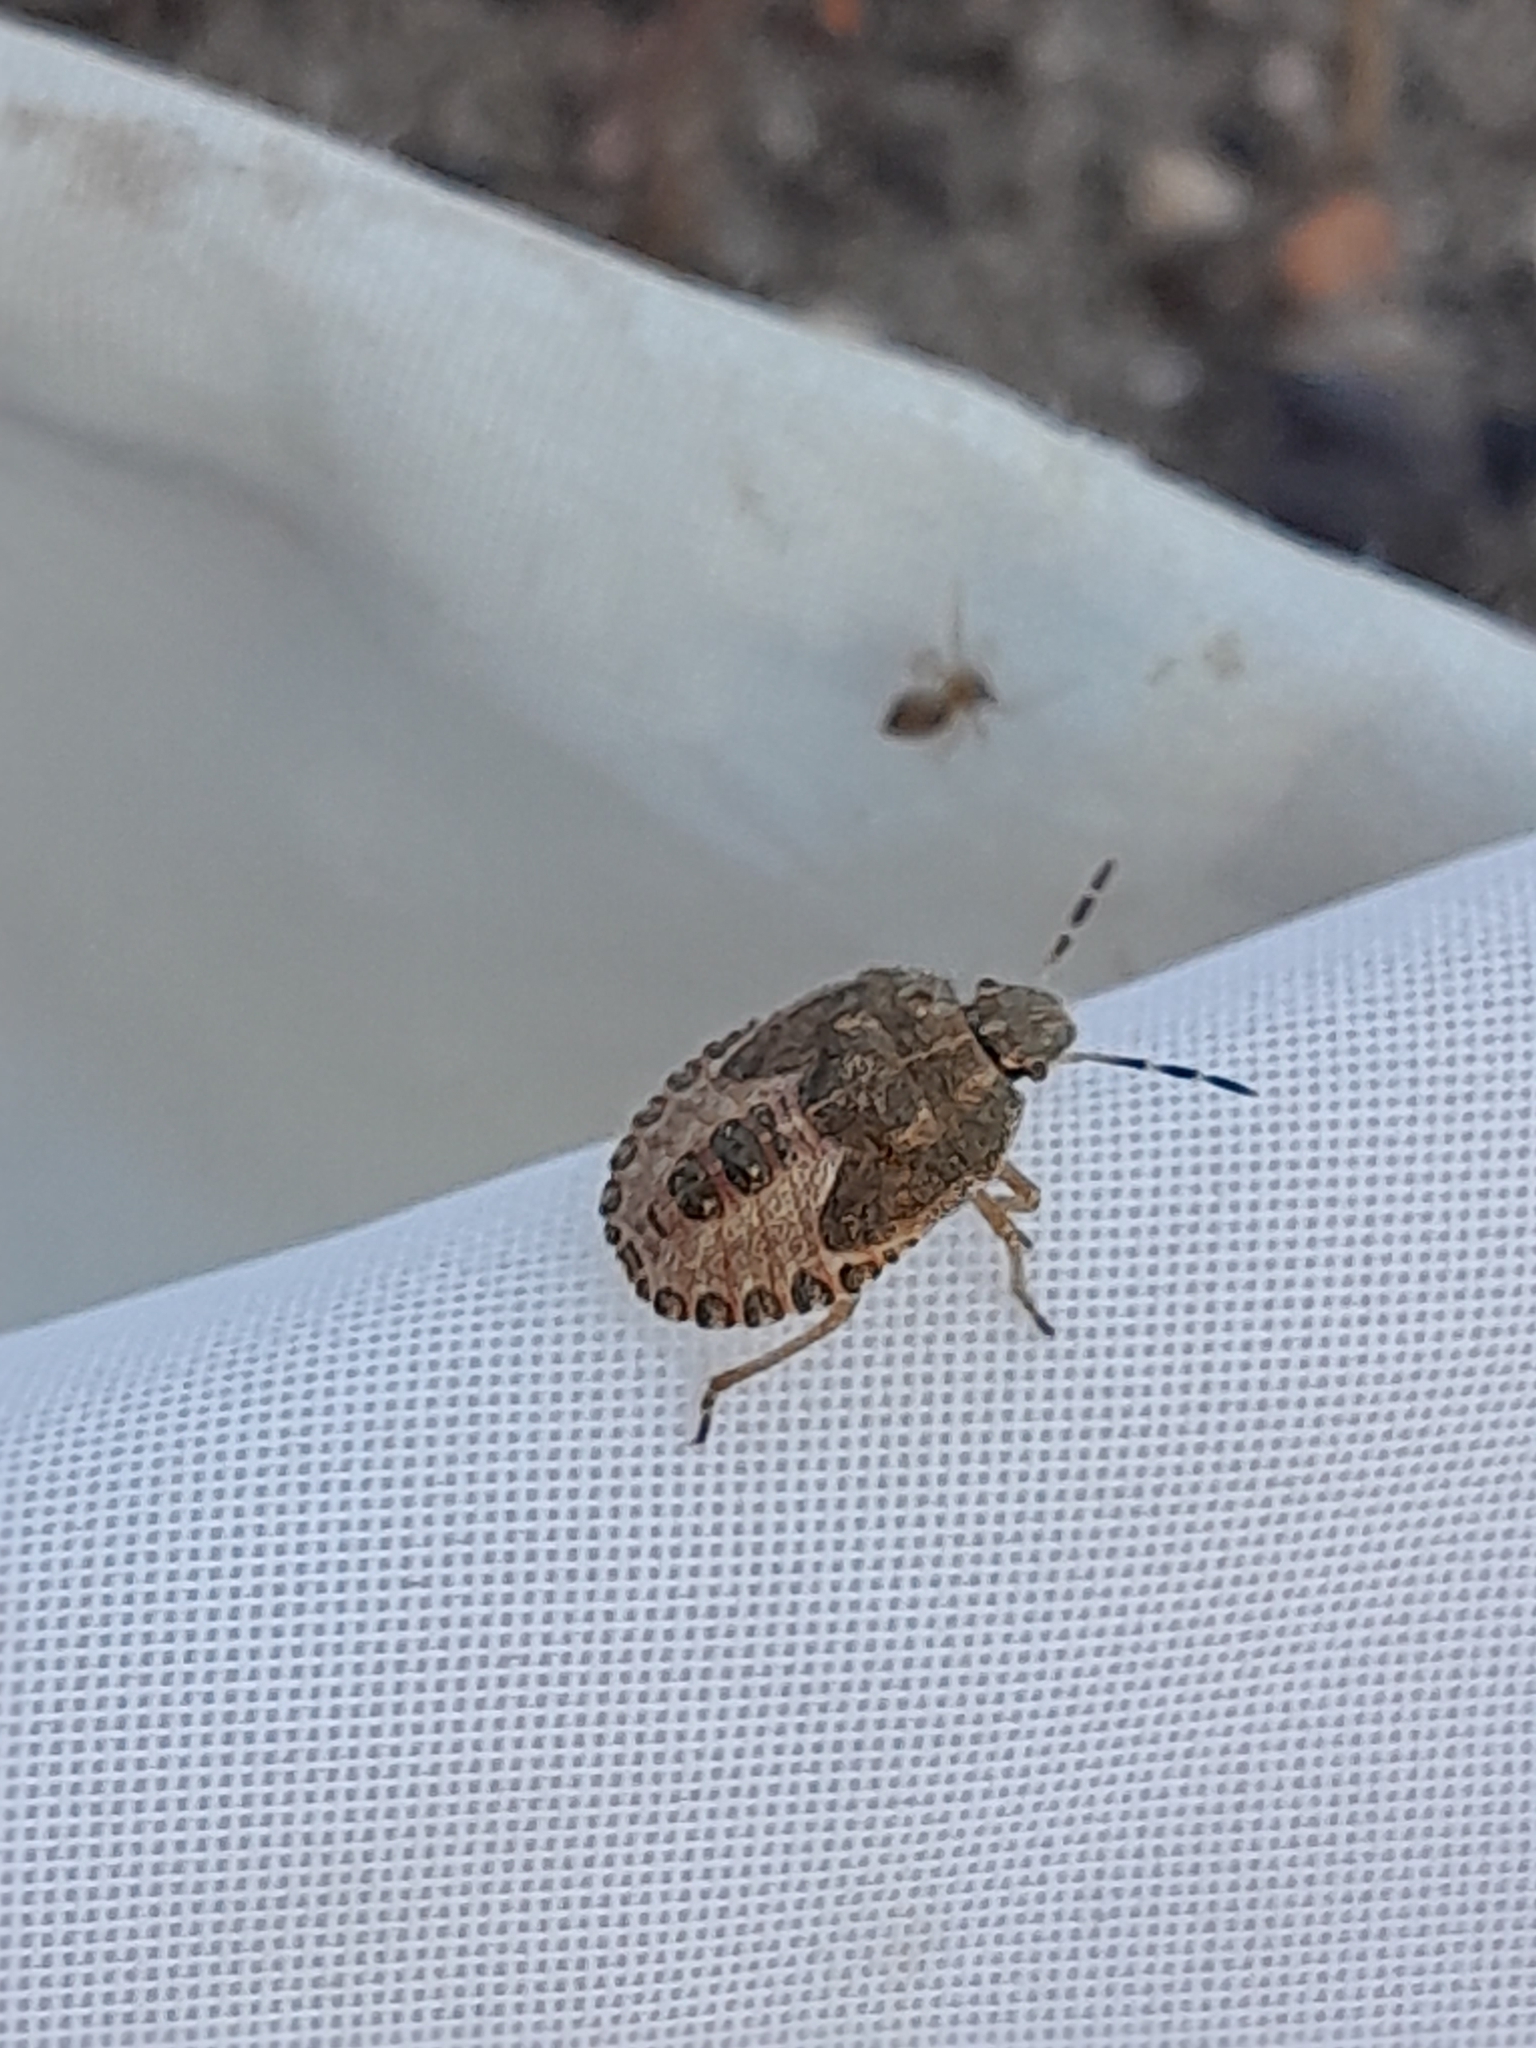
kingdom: Animalia
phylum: Arthropoda
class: Insecta
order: Hemiptera
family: Pentatomidae
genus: Dolycoris
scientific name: Dolycoris baccarum
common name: Sloe bug
